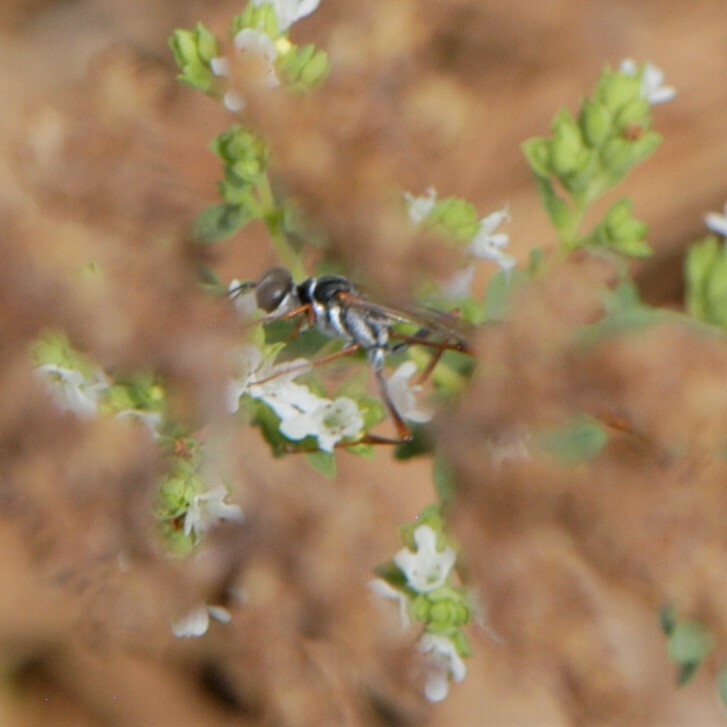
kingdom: Animalia
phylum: Arthropoda
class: Insecta
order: Hymenoptera
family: Sphecidae
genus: Ammophila
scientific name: Ammophila aberti
